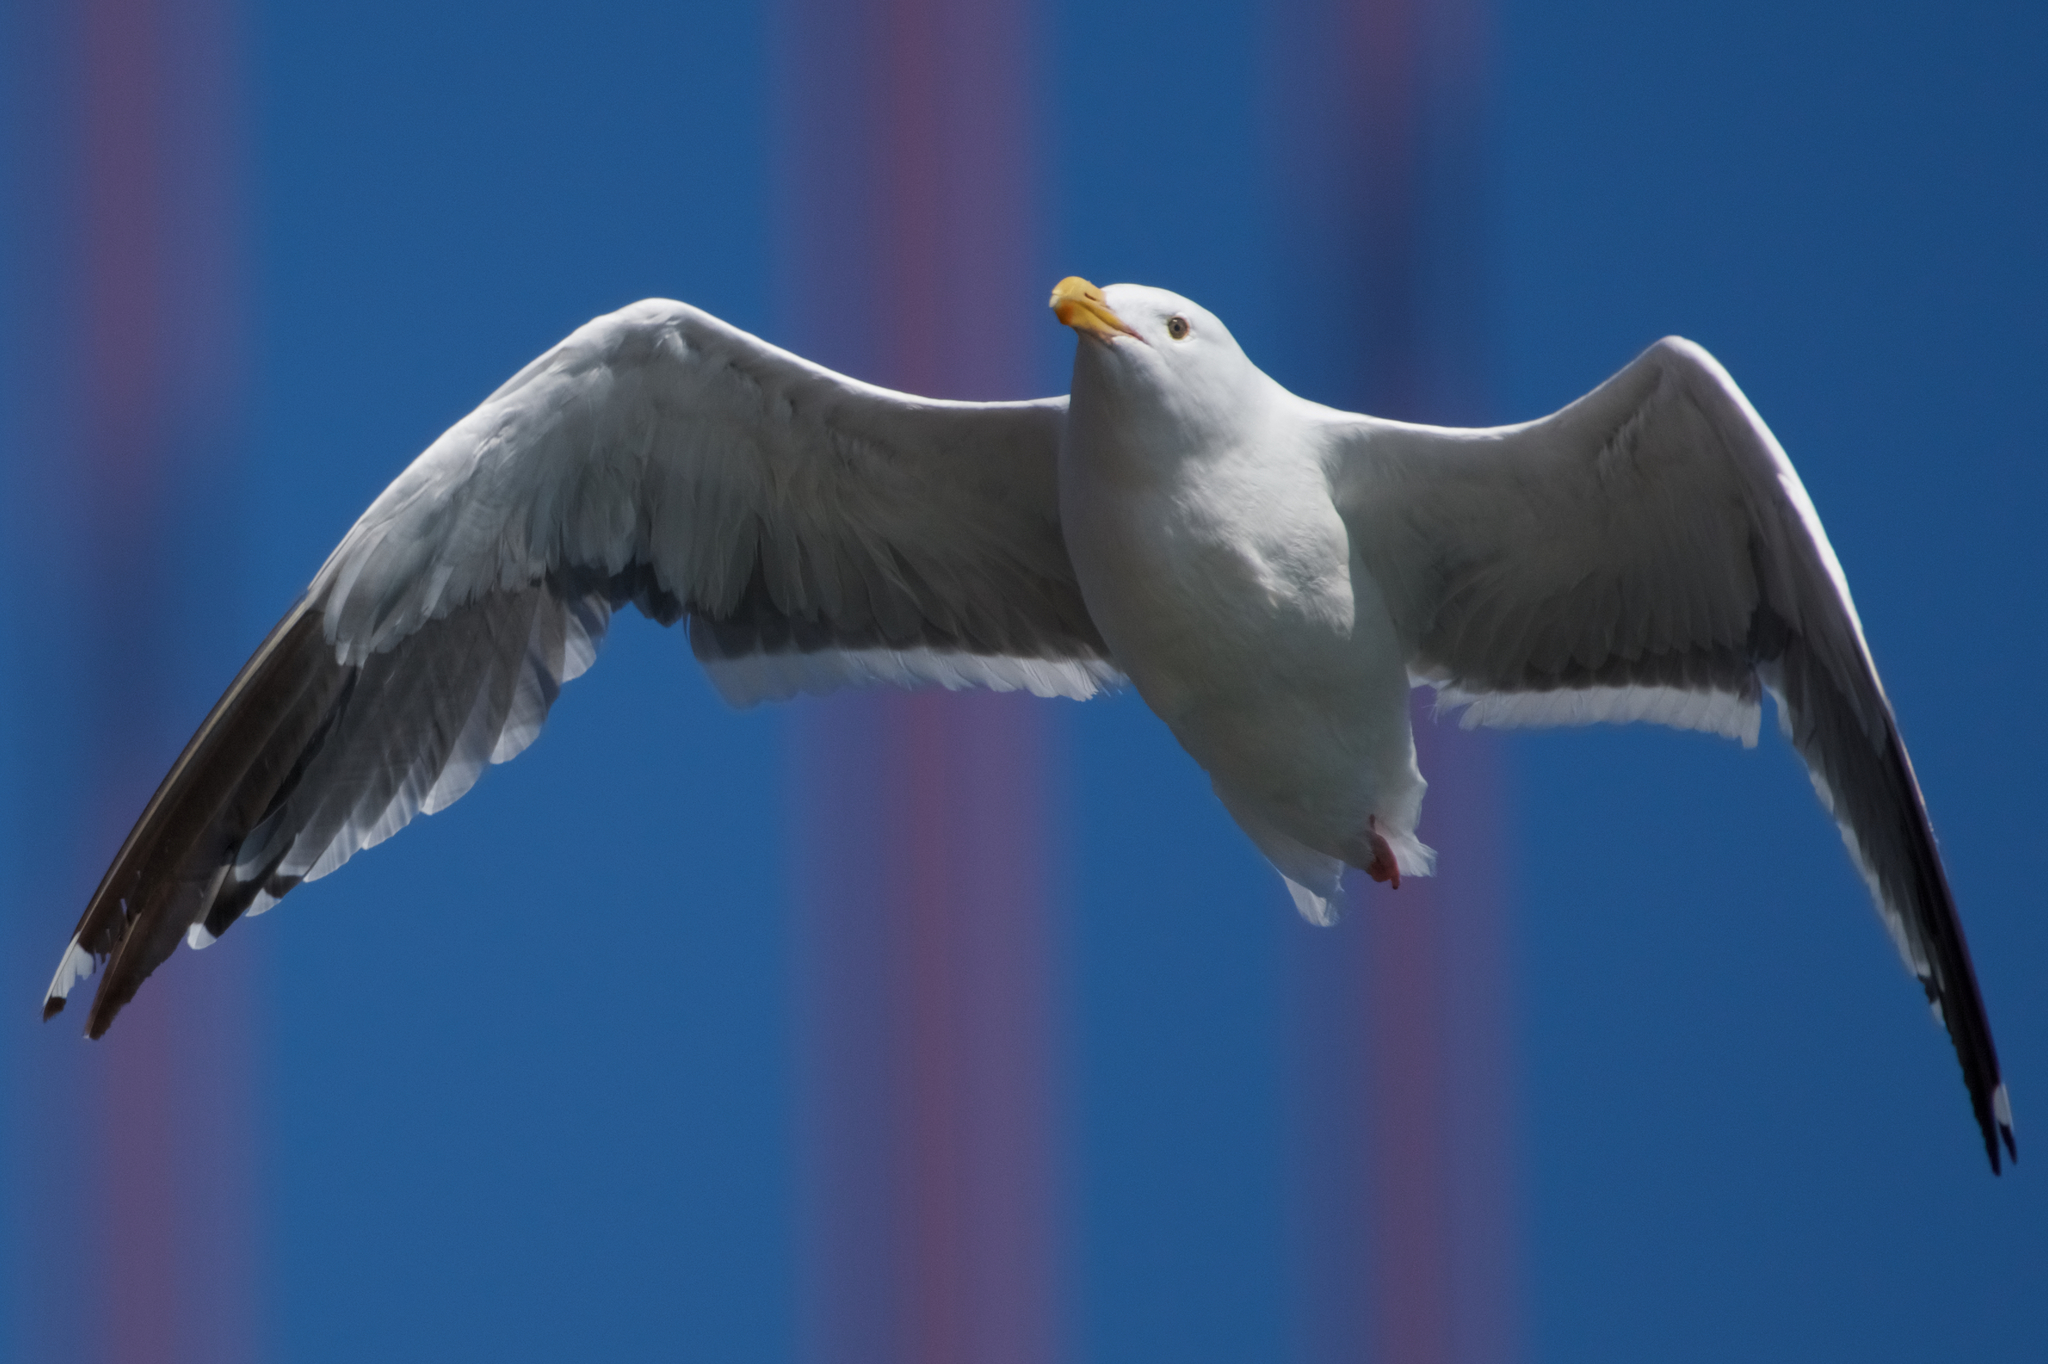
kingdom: Animalia
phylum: Chordata
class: Aves
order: Charadriiformes
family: Laridae
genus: Larus
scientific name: Larus occidentalis
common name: Western gull
